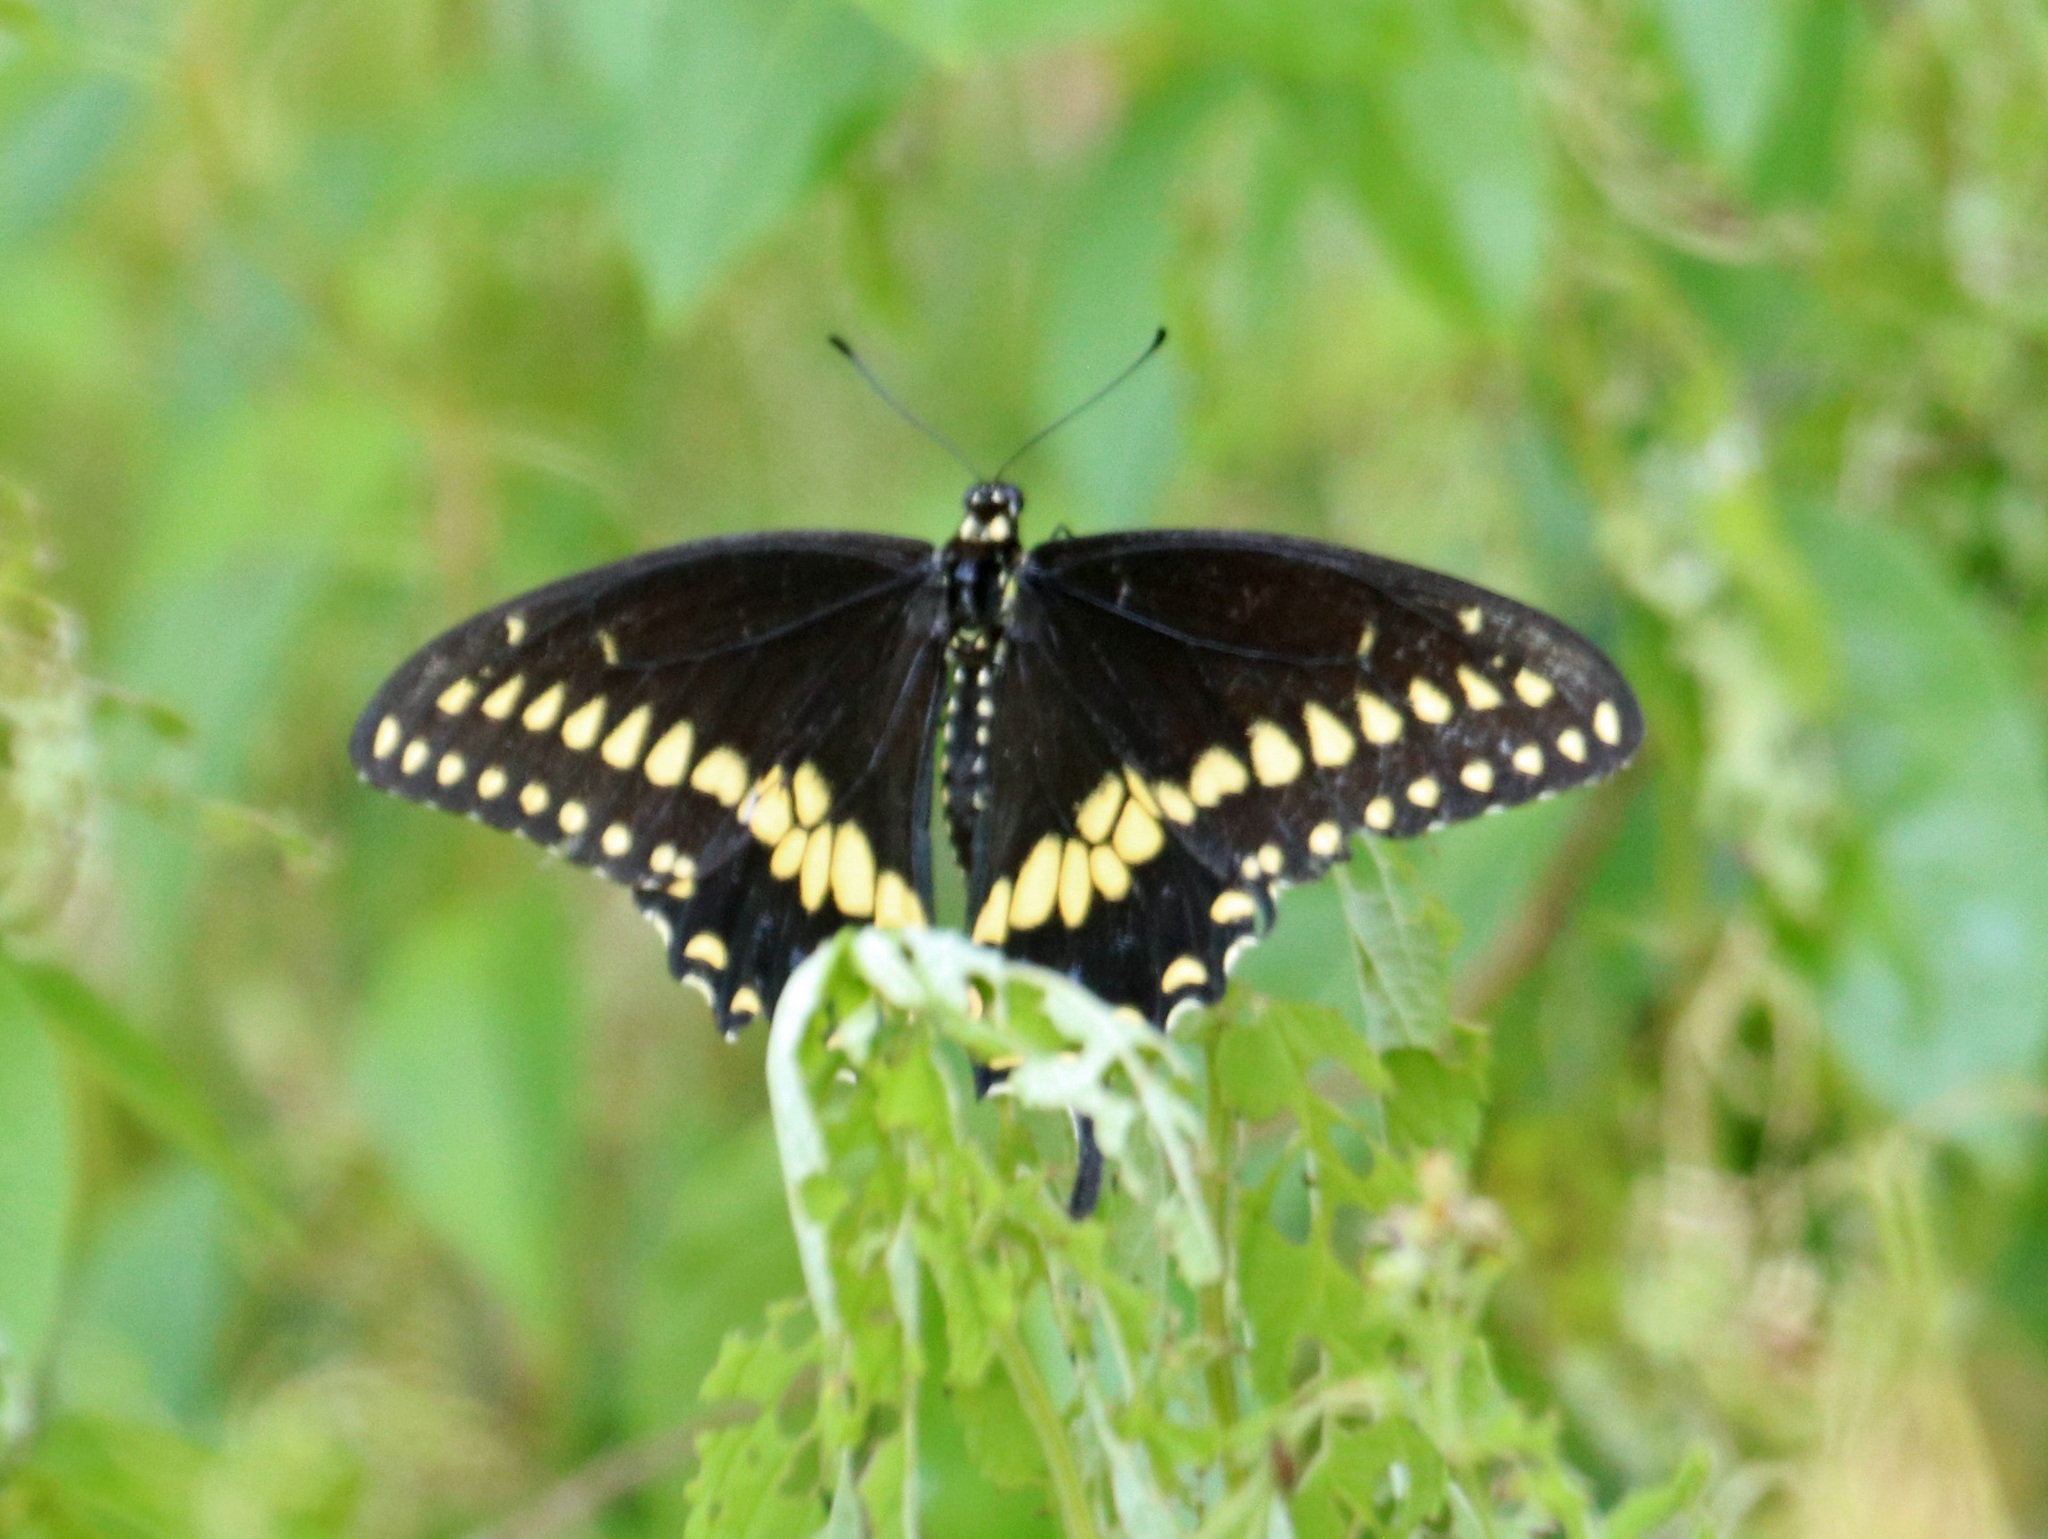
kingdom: Animalia
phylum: Arthropoda
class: Insecta
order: Lepidoptera
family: Papilionidae
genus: Papilio
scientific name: Papilio polyxenes
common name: Black swallowtail
